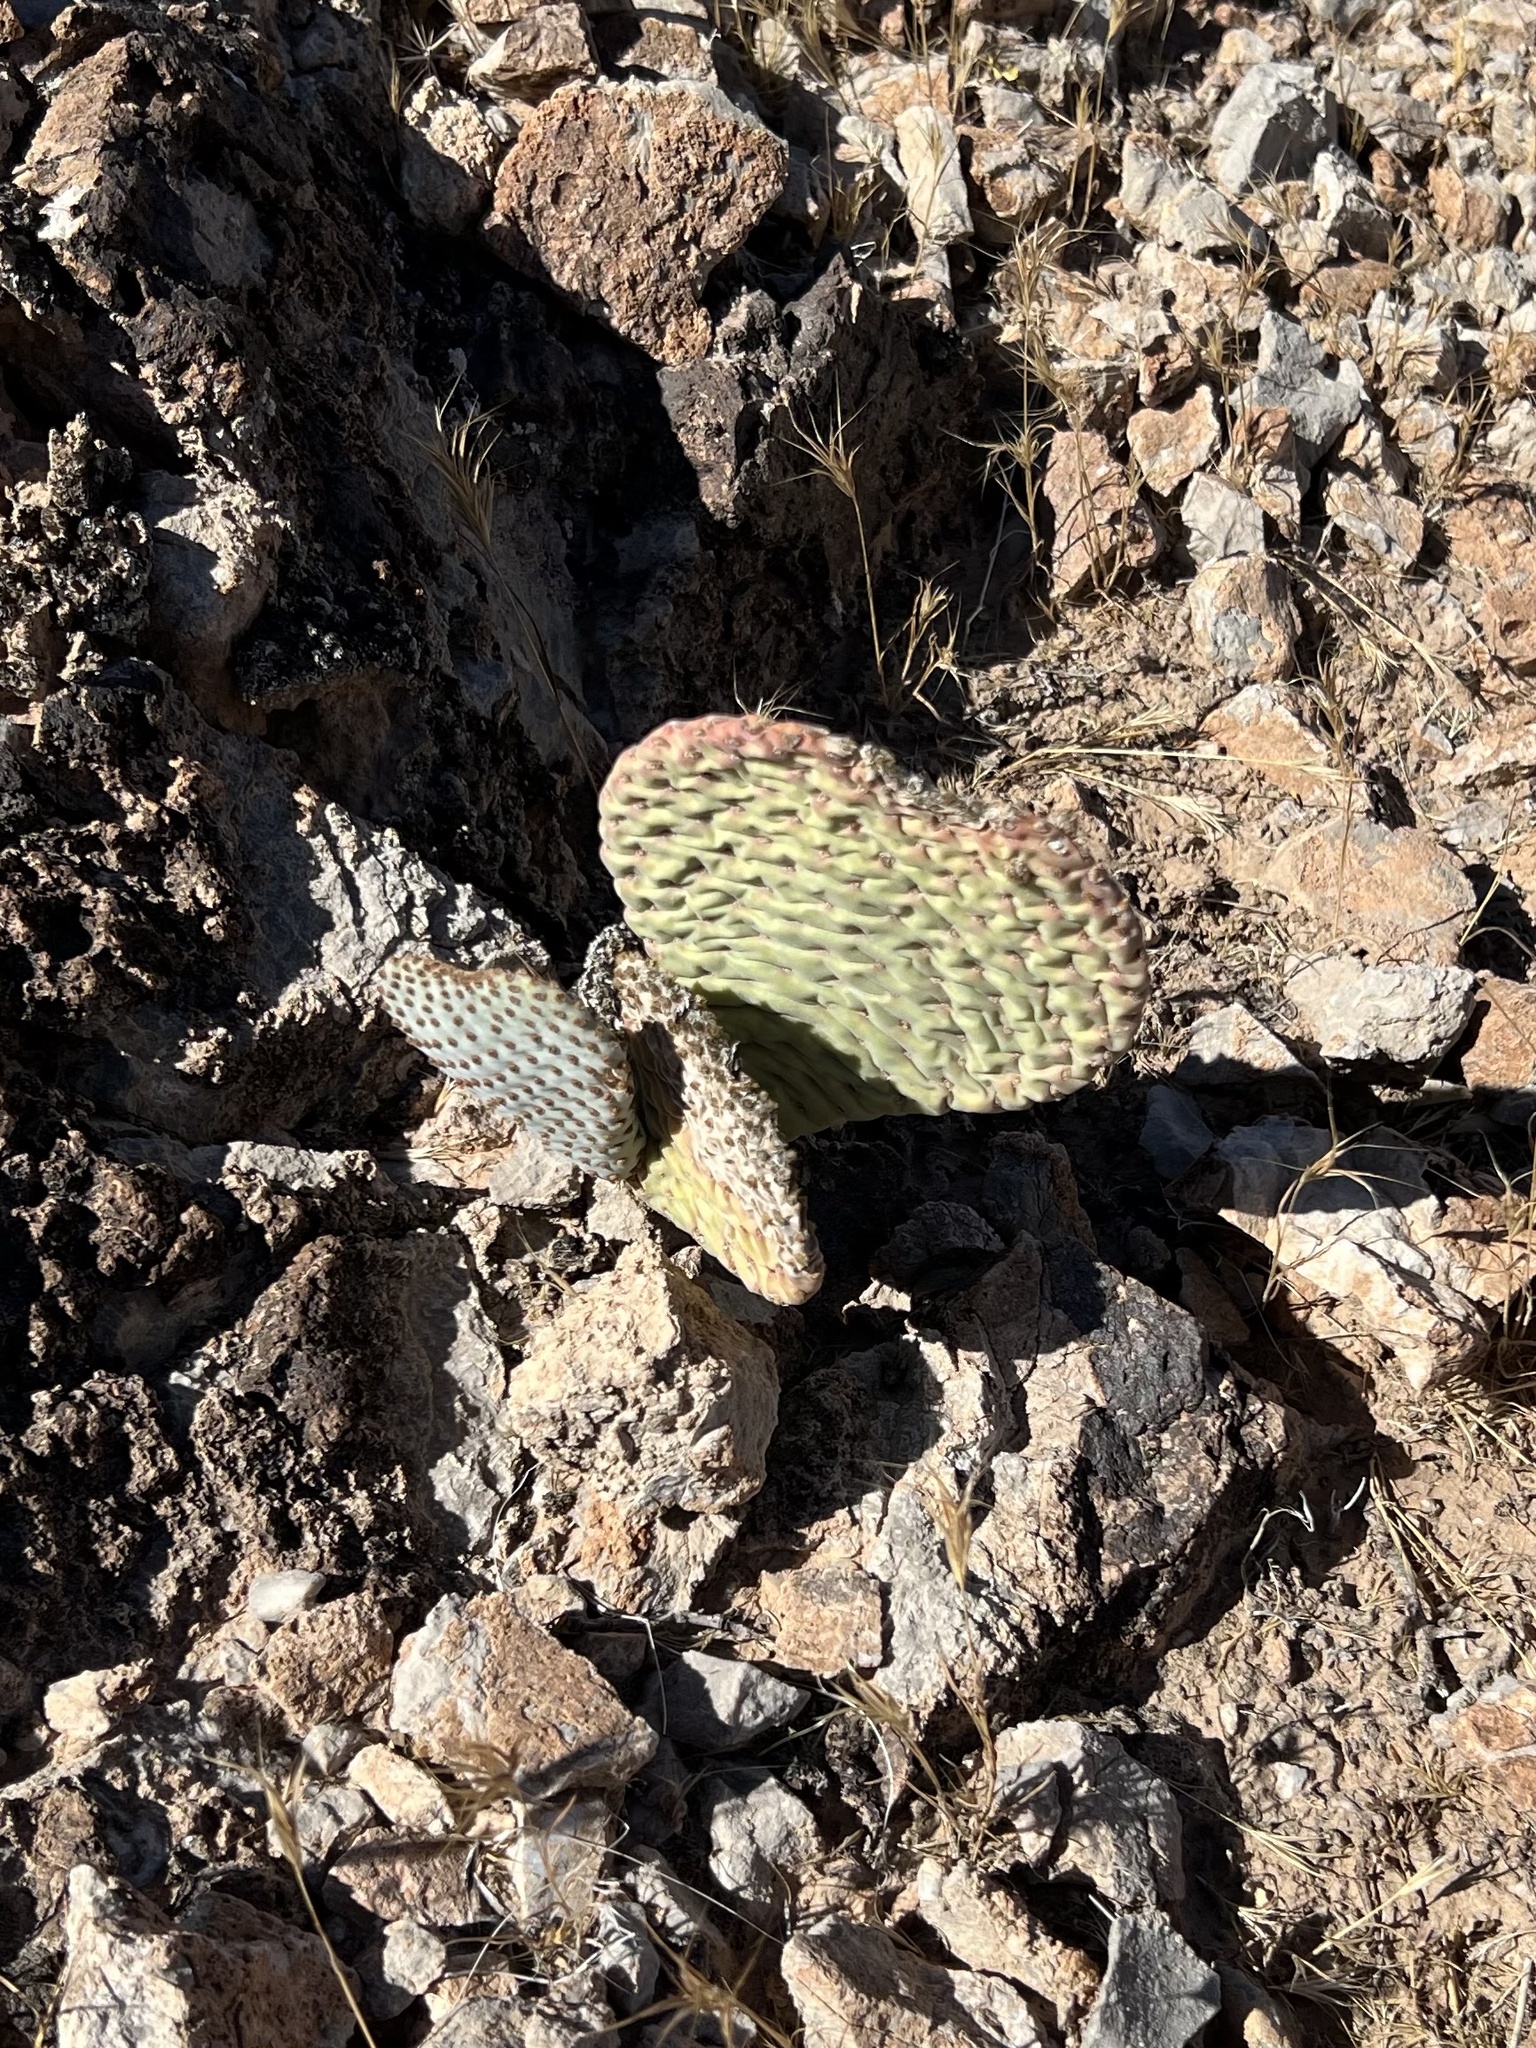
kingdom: Plantae
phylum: Tracheophyta
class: Magnoliopsida
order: Caryophyllales
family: Cactaceae
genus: Opuntia
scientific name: Opuntia basilaris
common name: Beavertail prickly-pear
